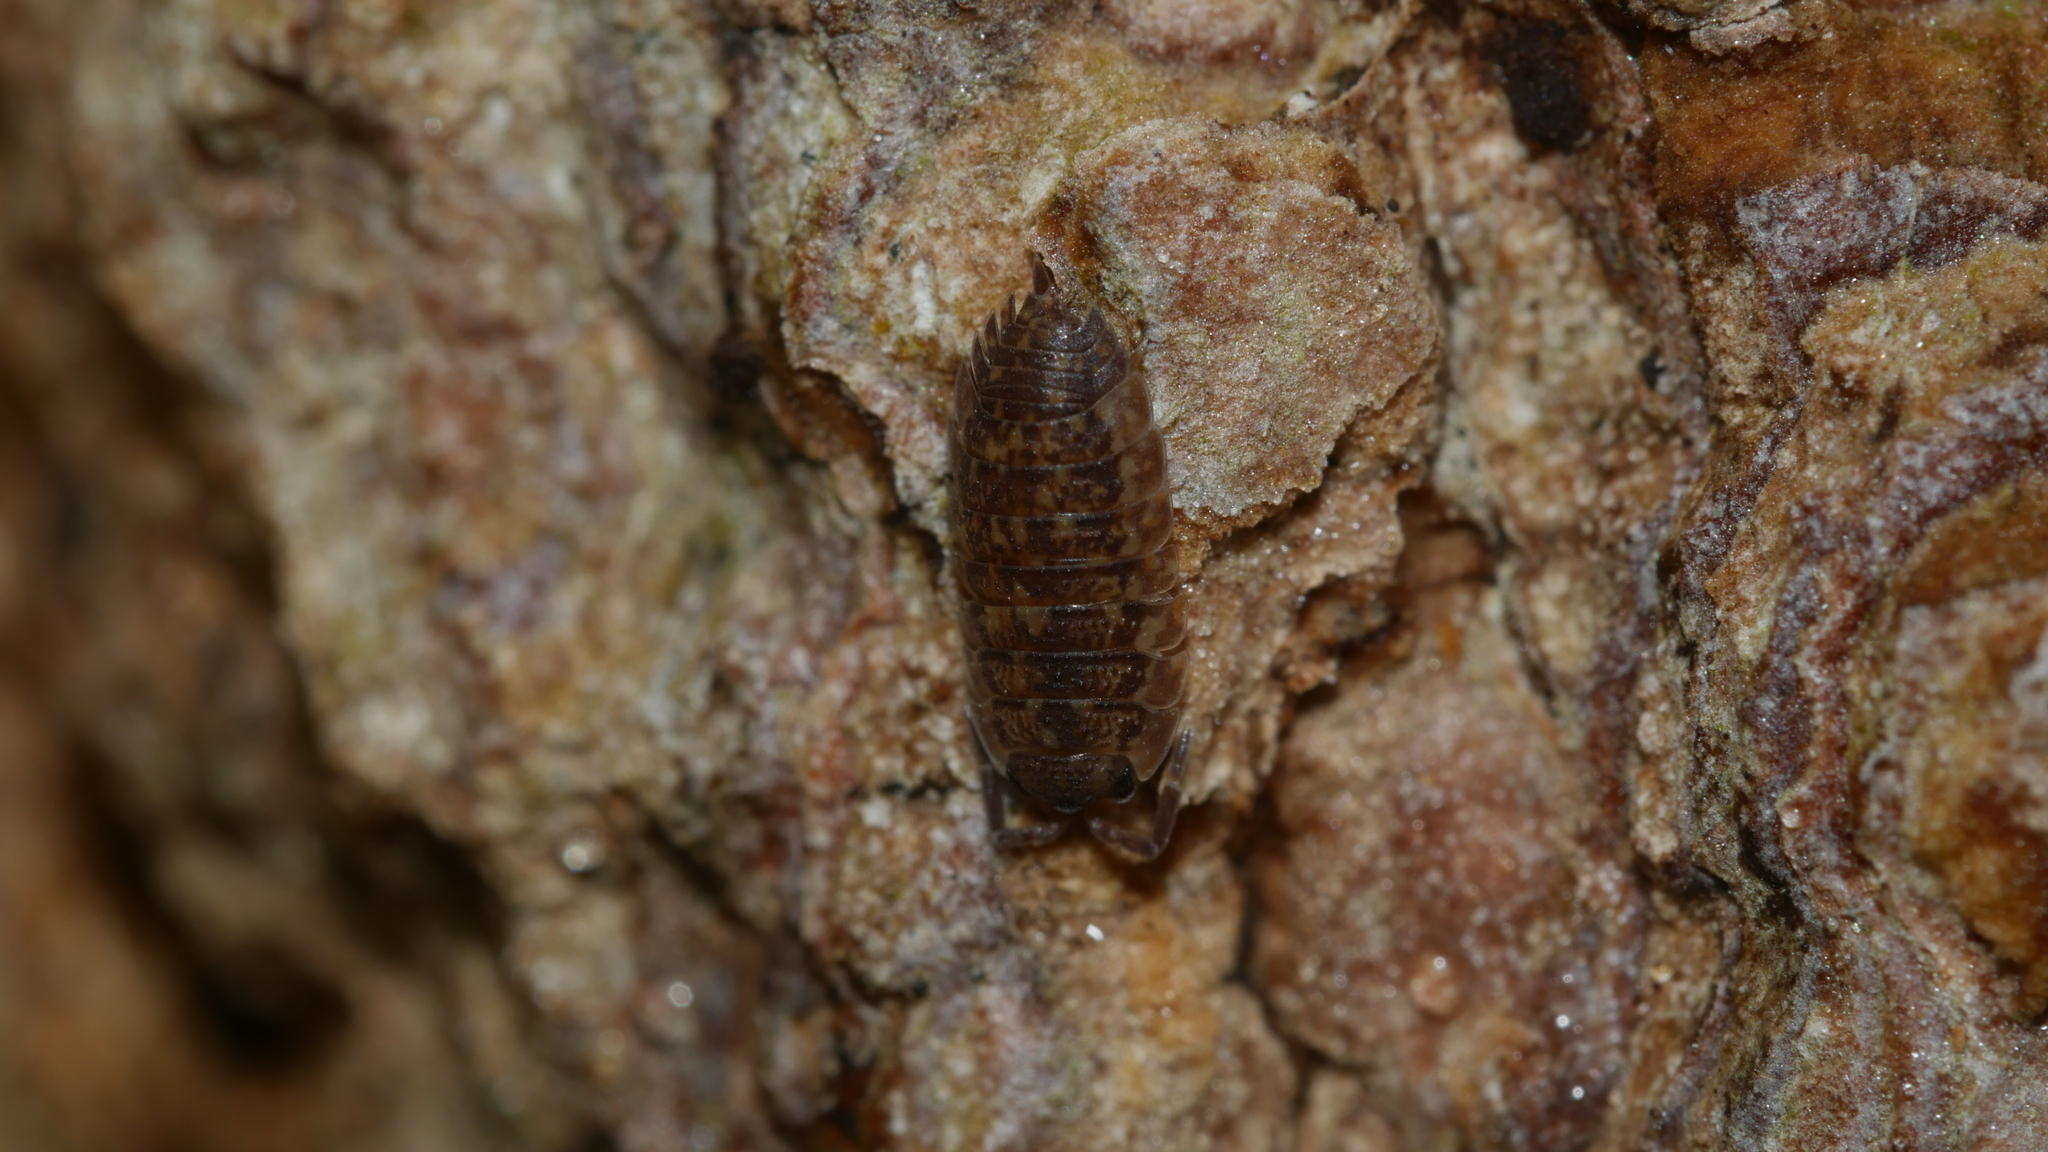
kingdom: Animalia
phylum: Arthropoda
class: Malacostraca
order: Isopoda
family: Porcellionidae
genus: Porcellio
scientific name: Porcellio scaber
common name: Common rough woodlouse
